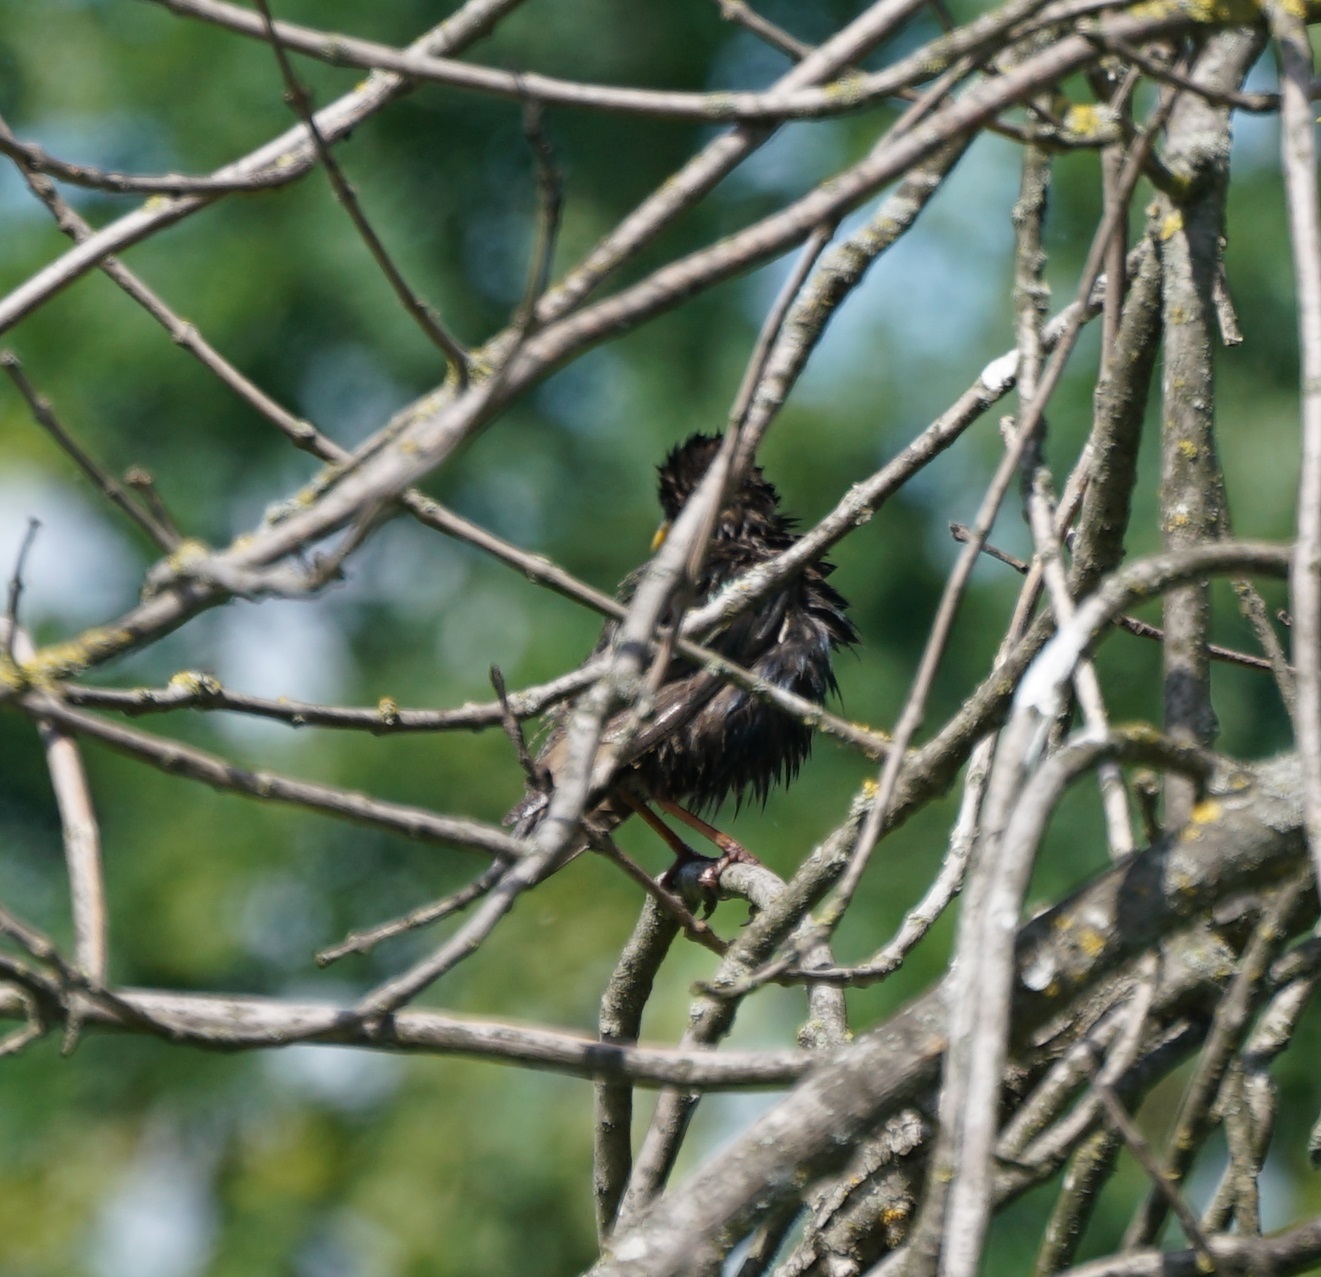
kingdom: Animalia
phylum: Chordata
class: Aves
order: Passeriformes
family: Sturnidae
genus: Sturnus
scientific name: Sturnus vulgaris
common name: Common starling
